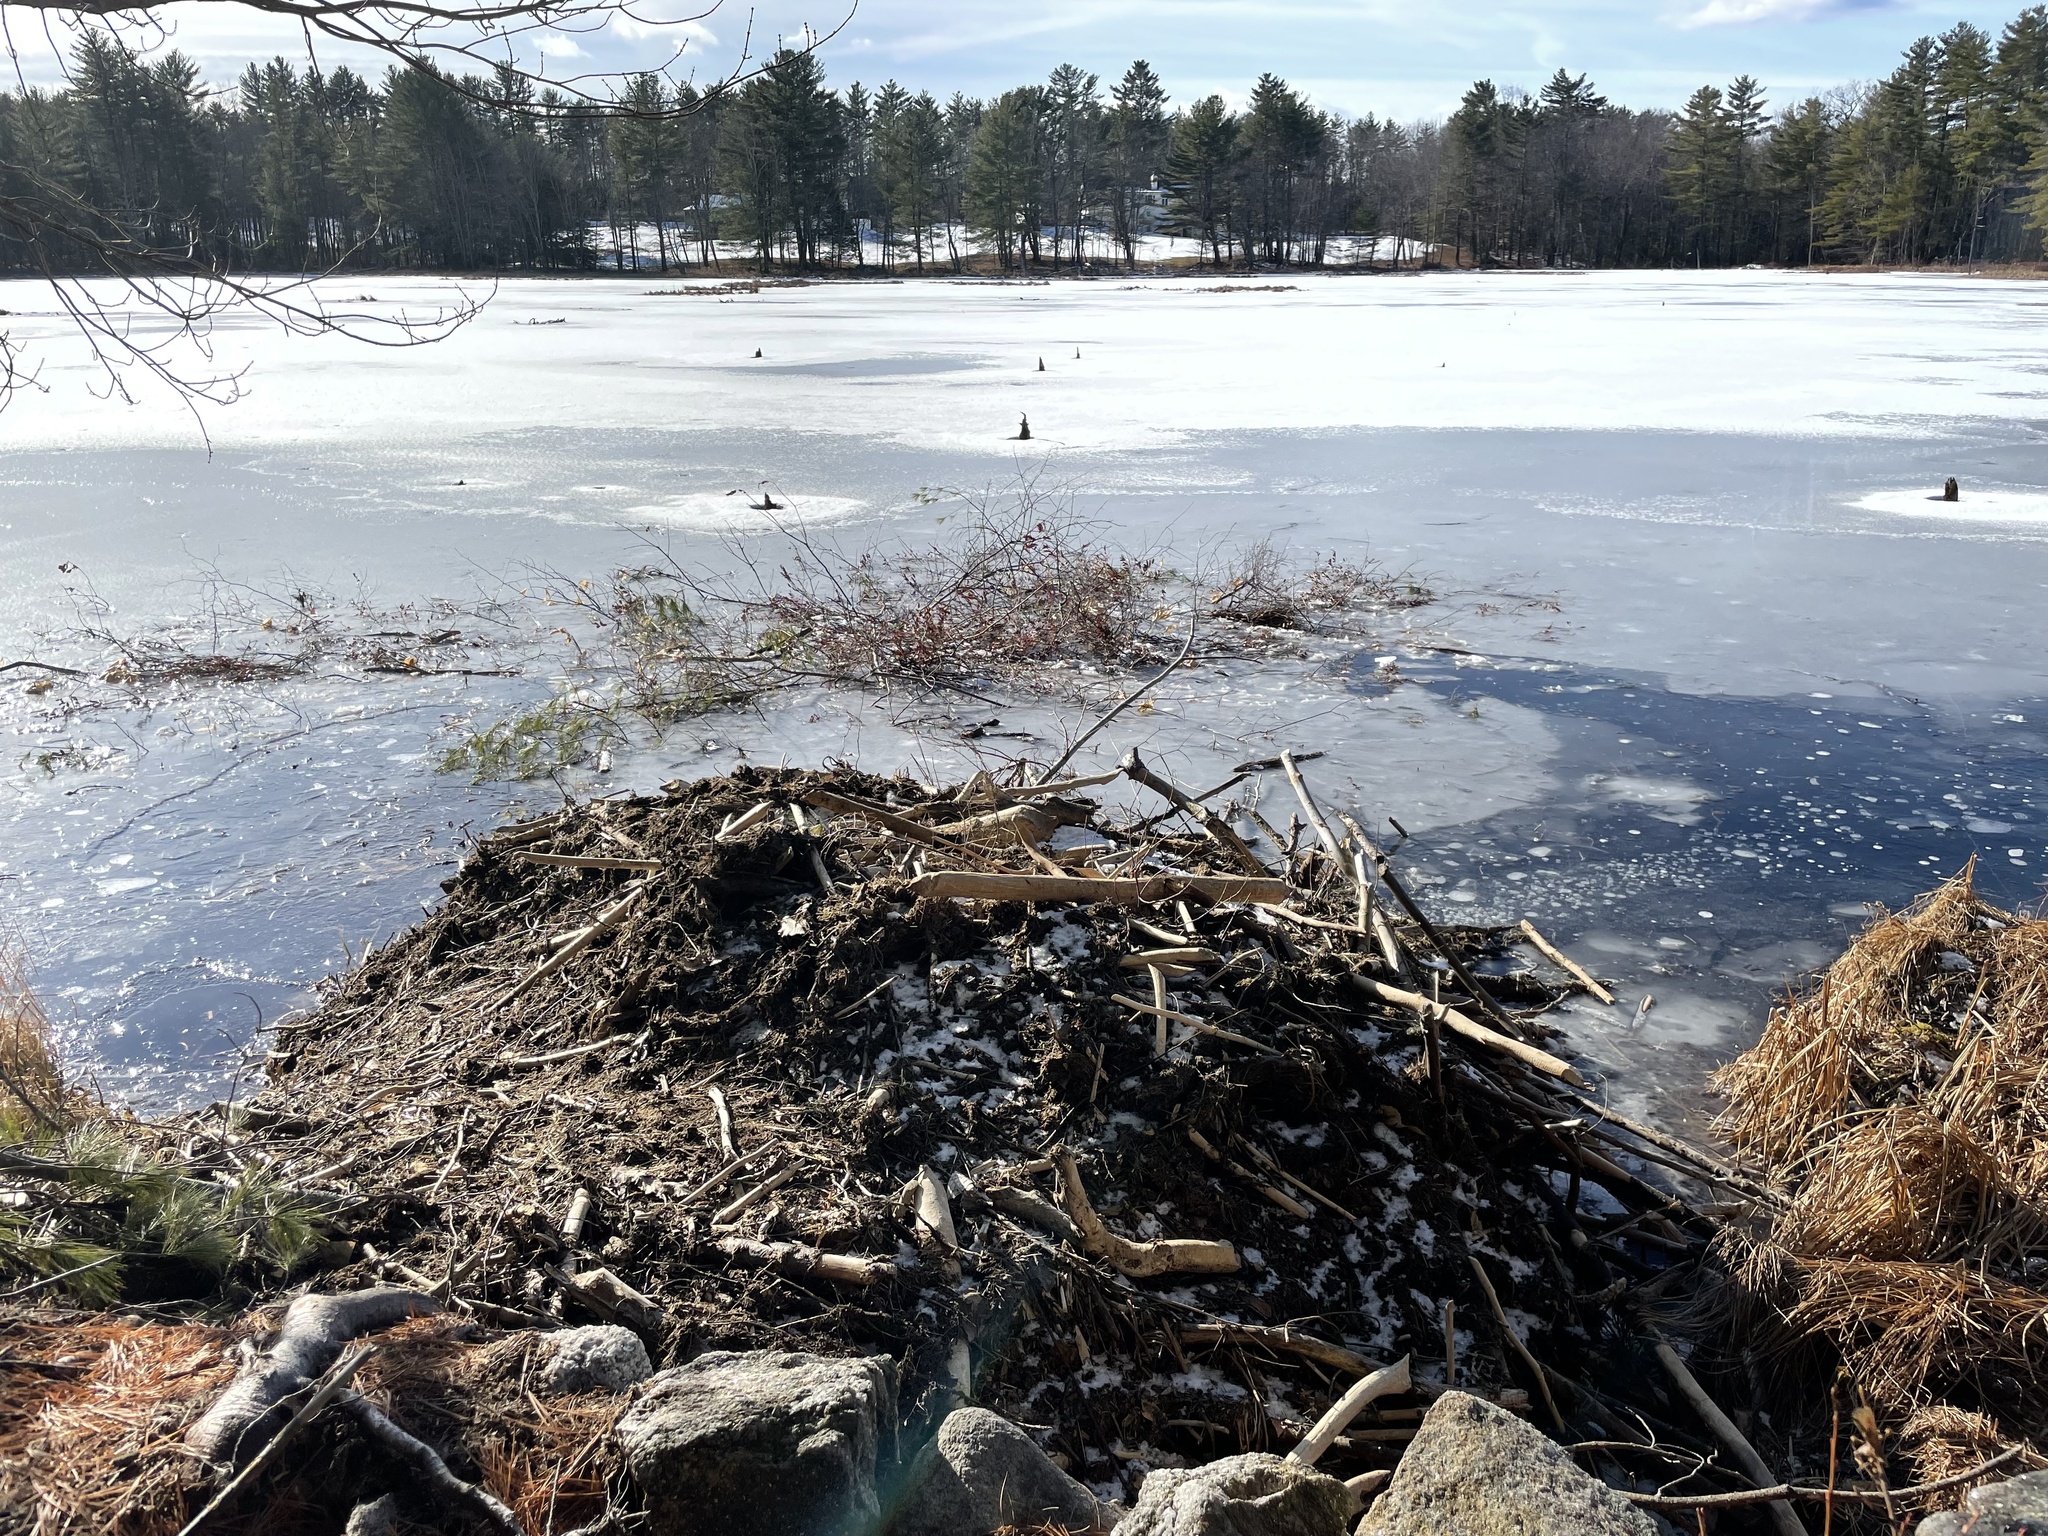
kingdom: Animalia
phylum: Chordata
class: Mammalia
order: Rodentia
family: Castoridae
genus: Castor
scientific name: Castor canadensis
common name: American beaver
